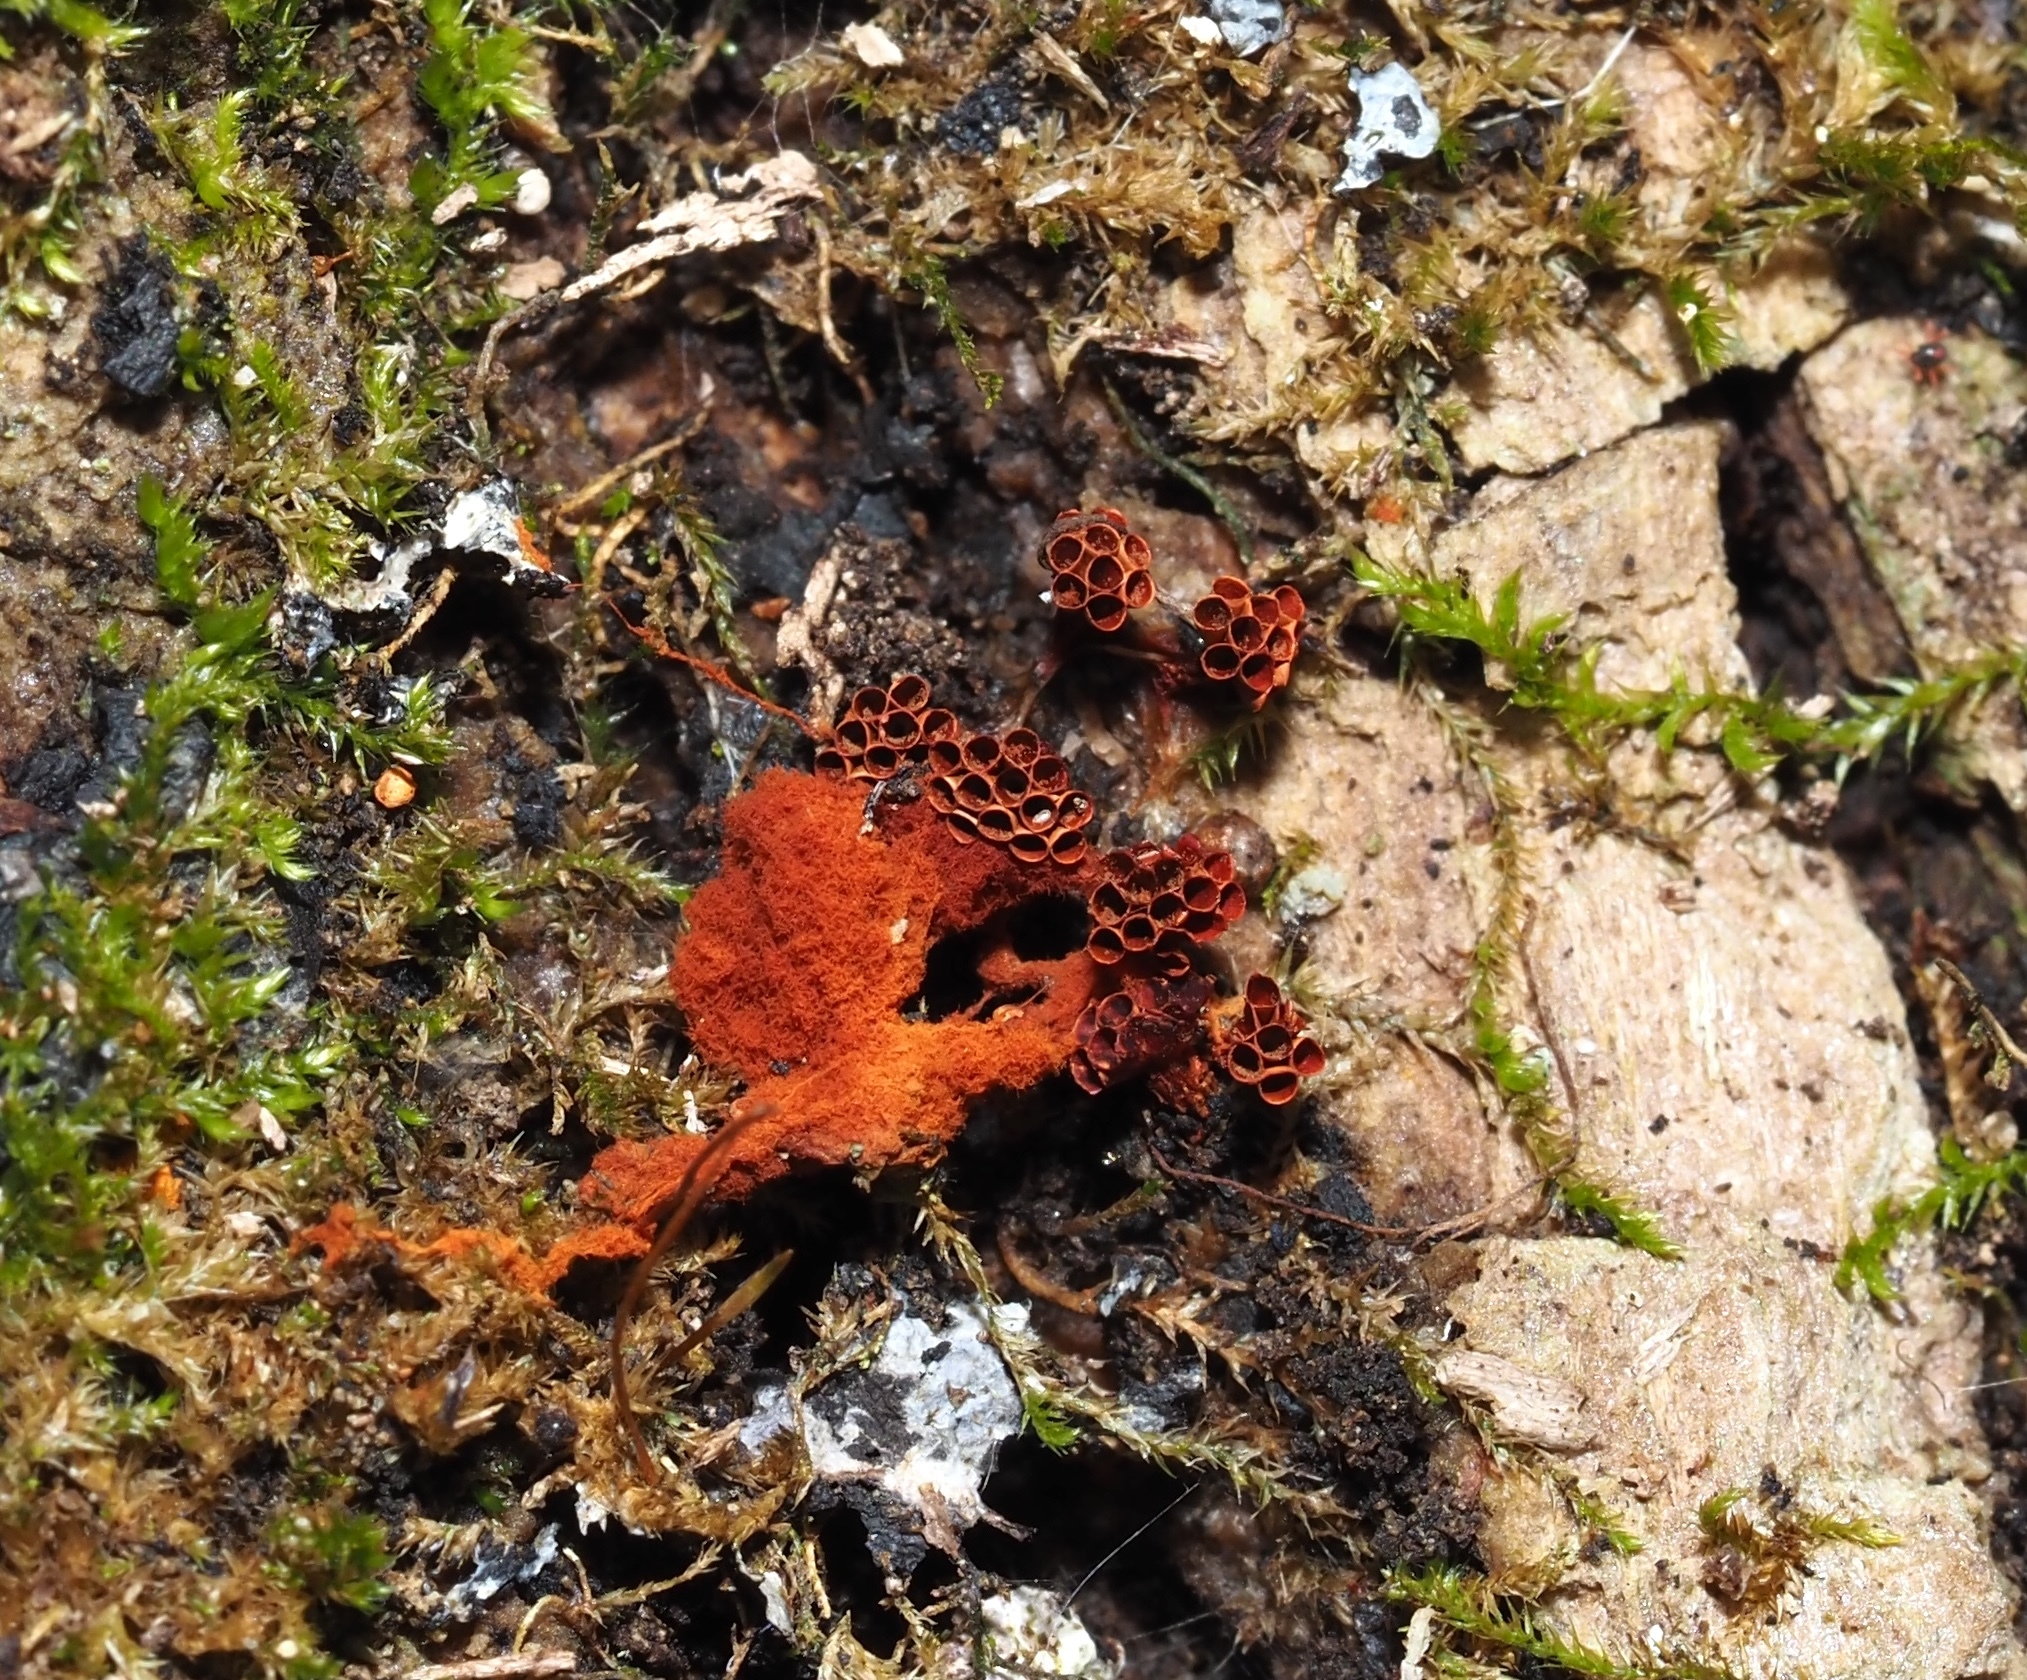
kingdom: Protozoa
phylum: Mycetozoa
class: Myxomycetes
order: Trichiales
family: Trichiaceae
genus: Metatrichia
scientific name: Metatrichia vesparia
